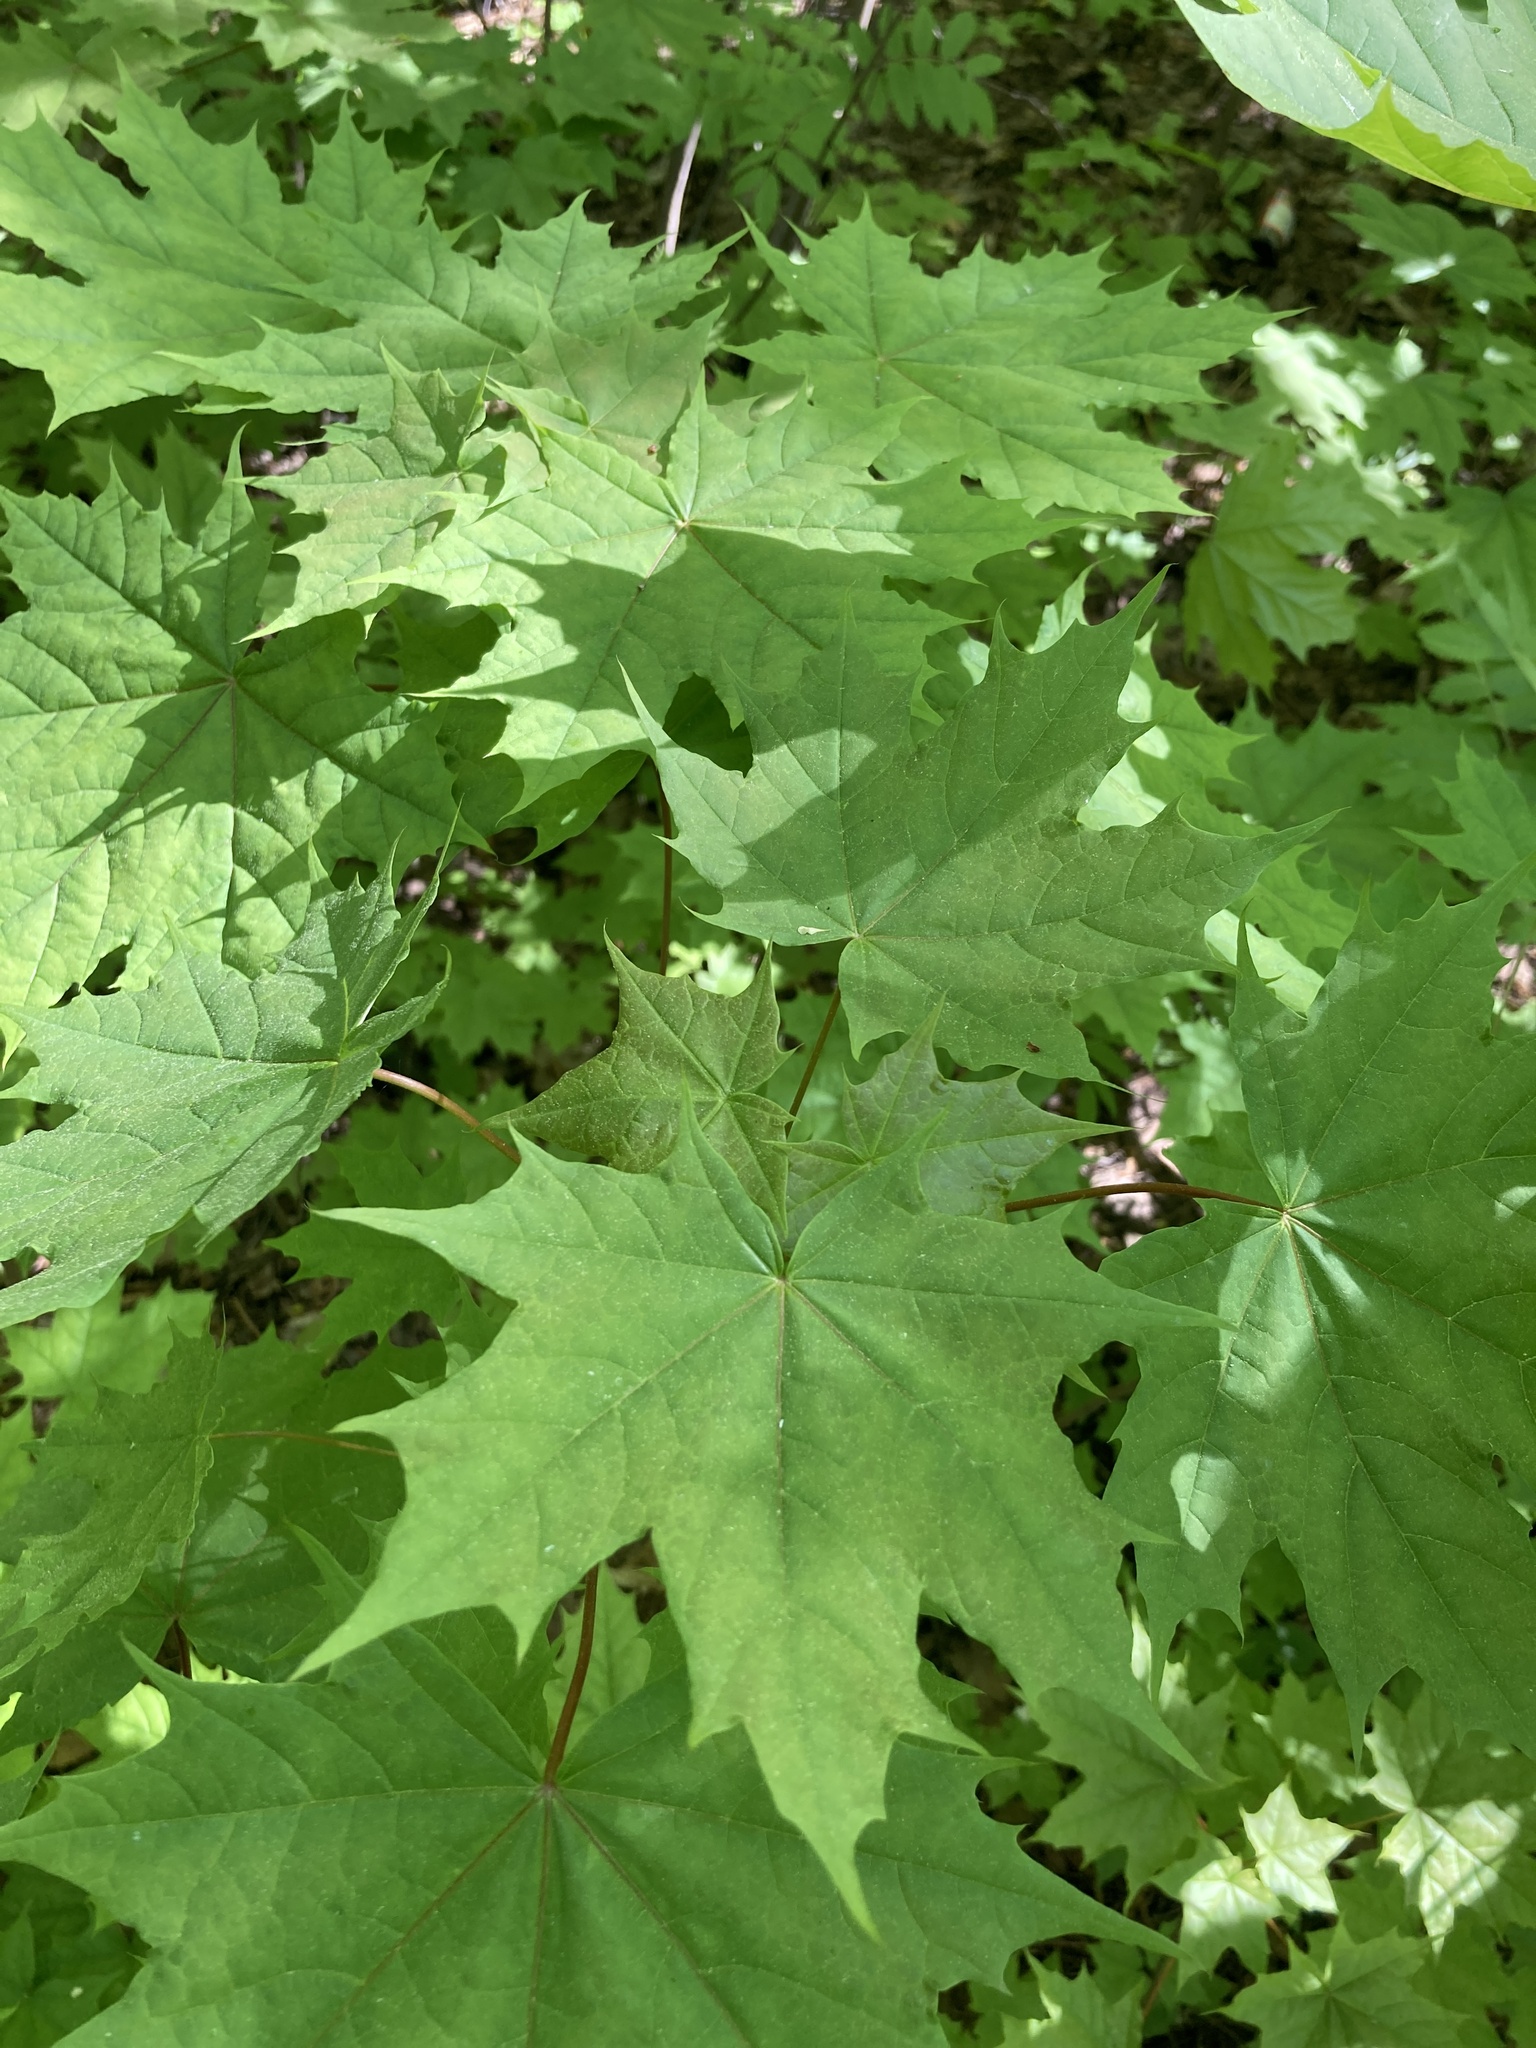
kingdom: Plantae
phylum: Tracheophyta
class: Magnoliopsida
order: Sapindales
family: Sapindaceae
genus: Acer
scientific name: Acer platanoides
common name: Norway maple
